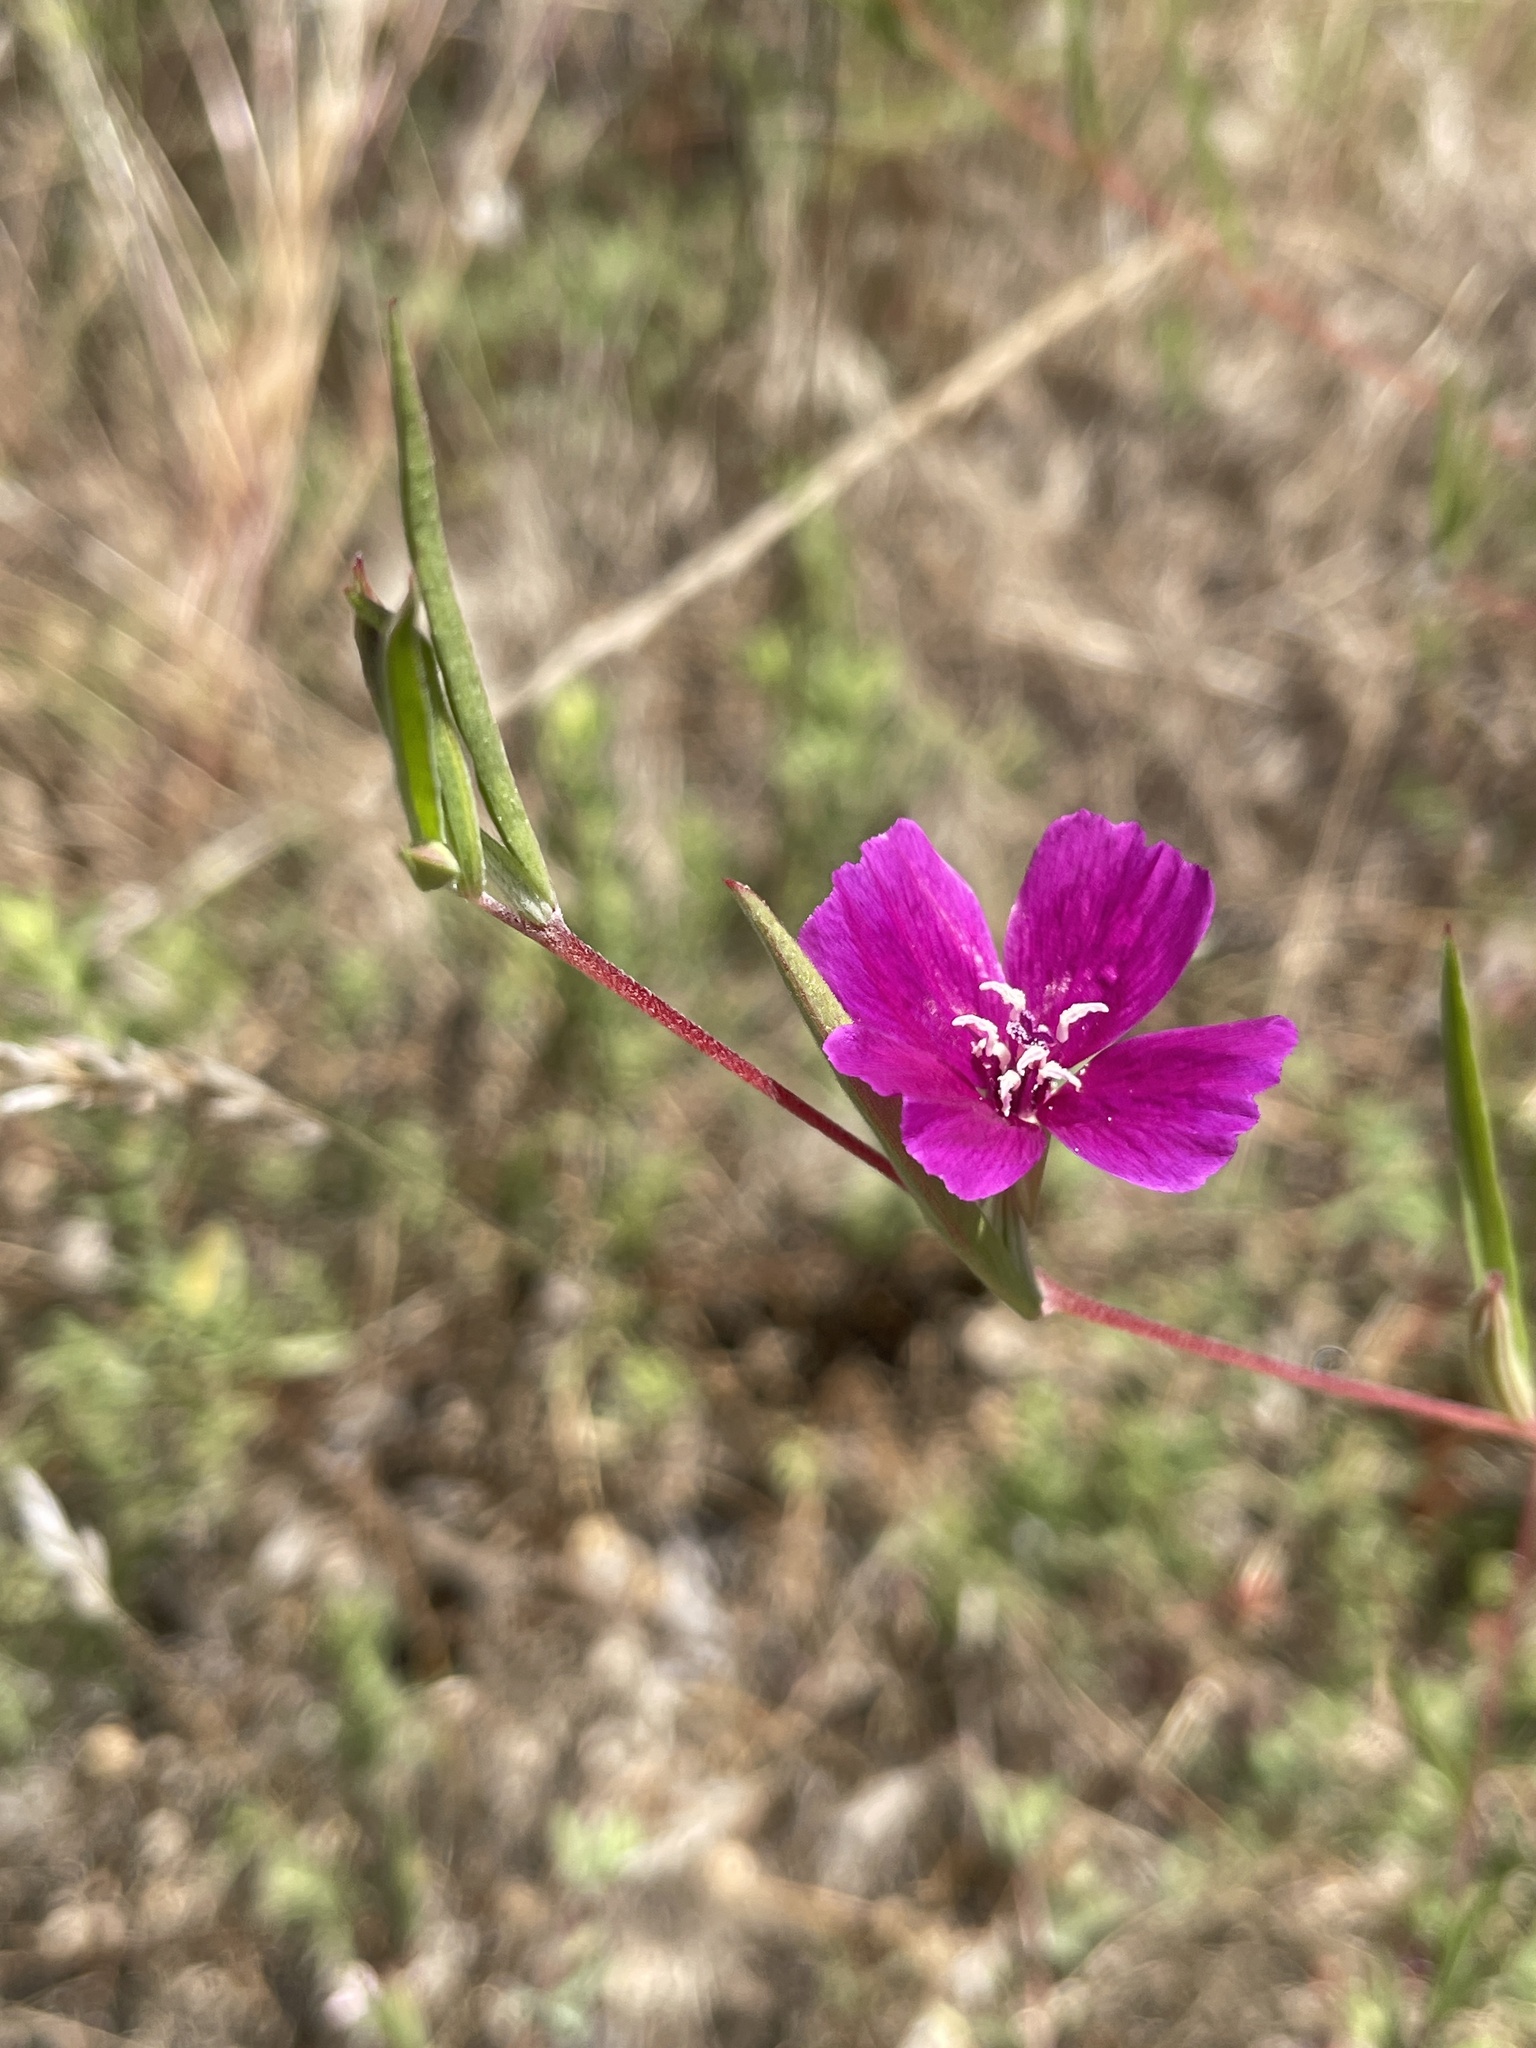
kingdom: Plantae
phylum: Tracheophyta
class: Magnoliopsida
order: Myrtales
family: Onagraceae
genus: Clarkia
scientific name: Clarkia purpurea
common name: Purple clarkia
